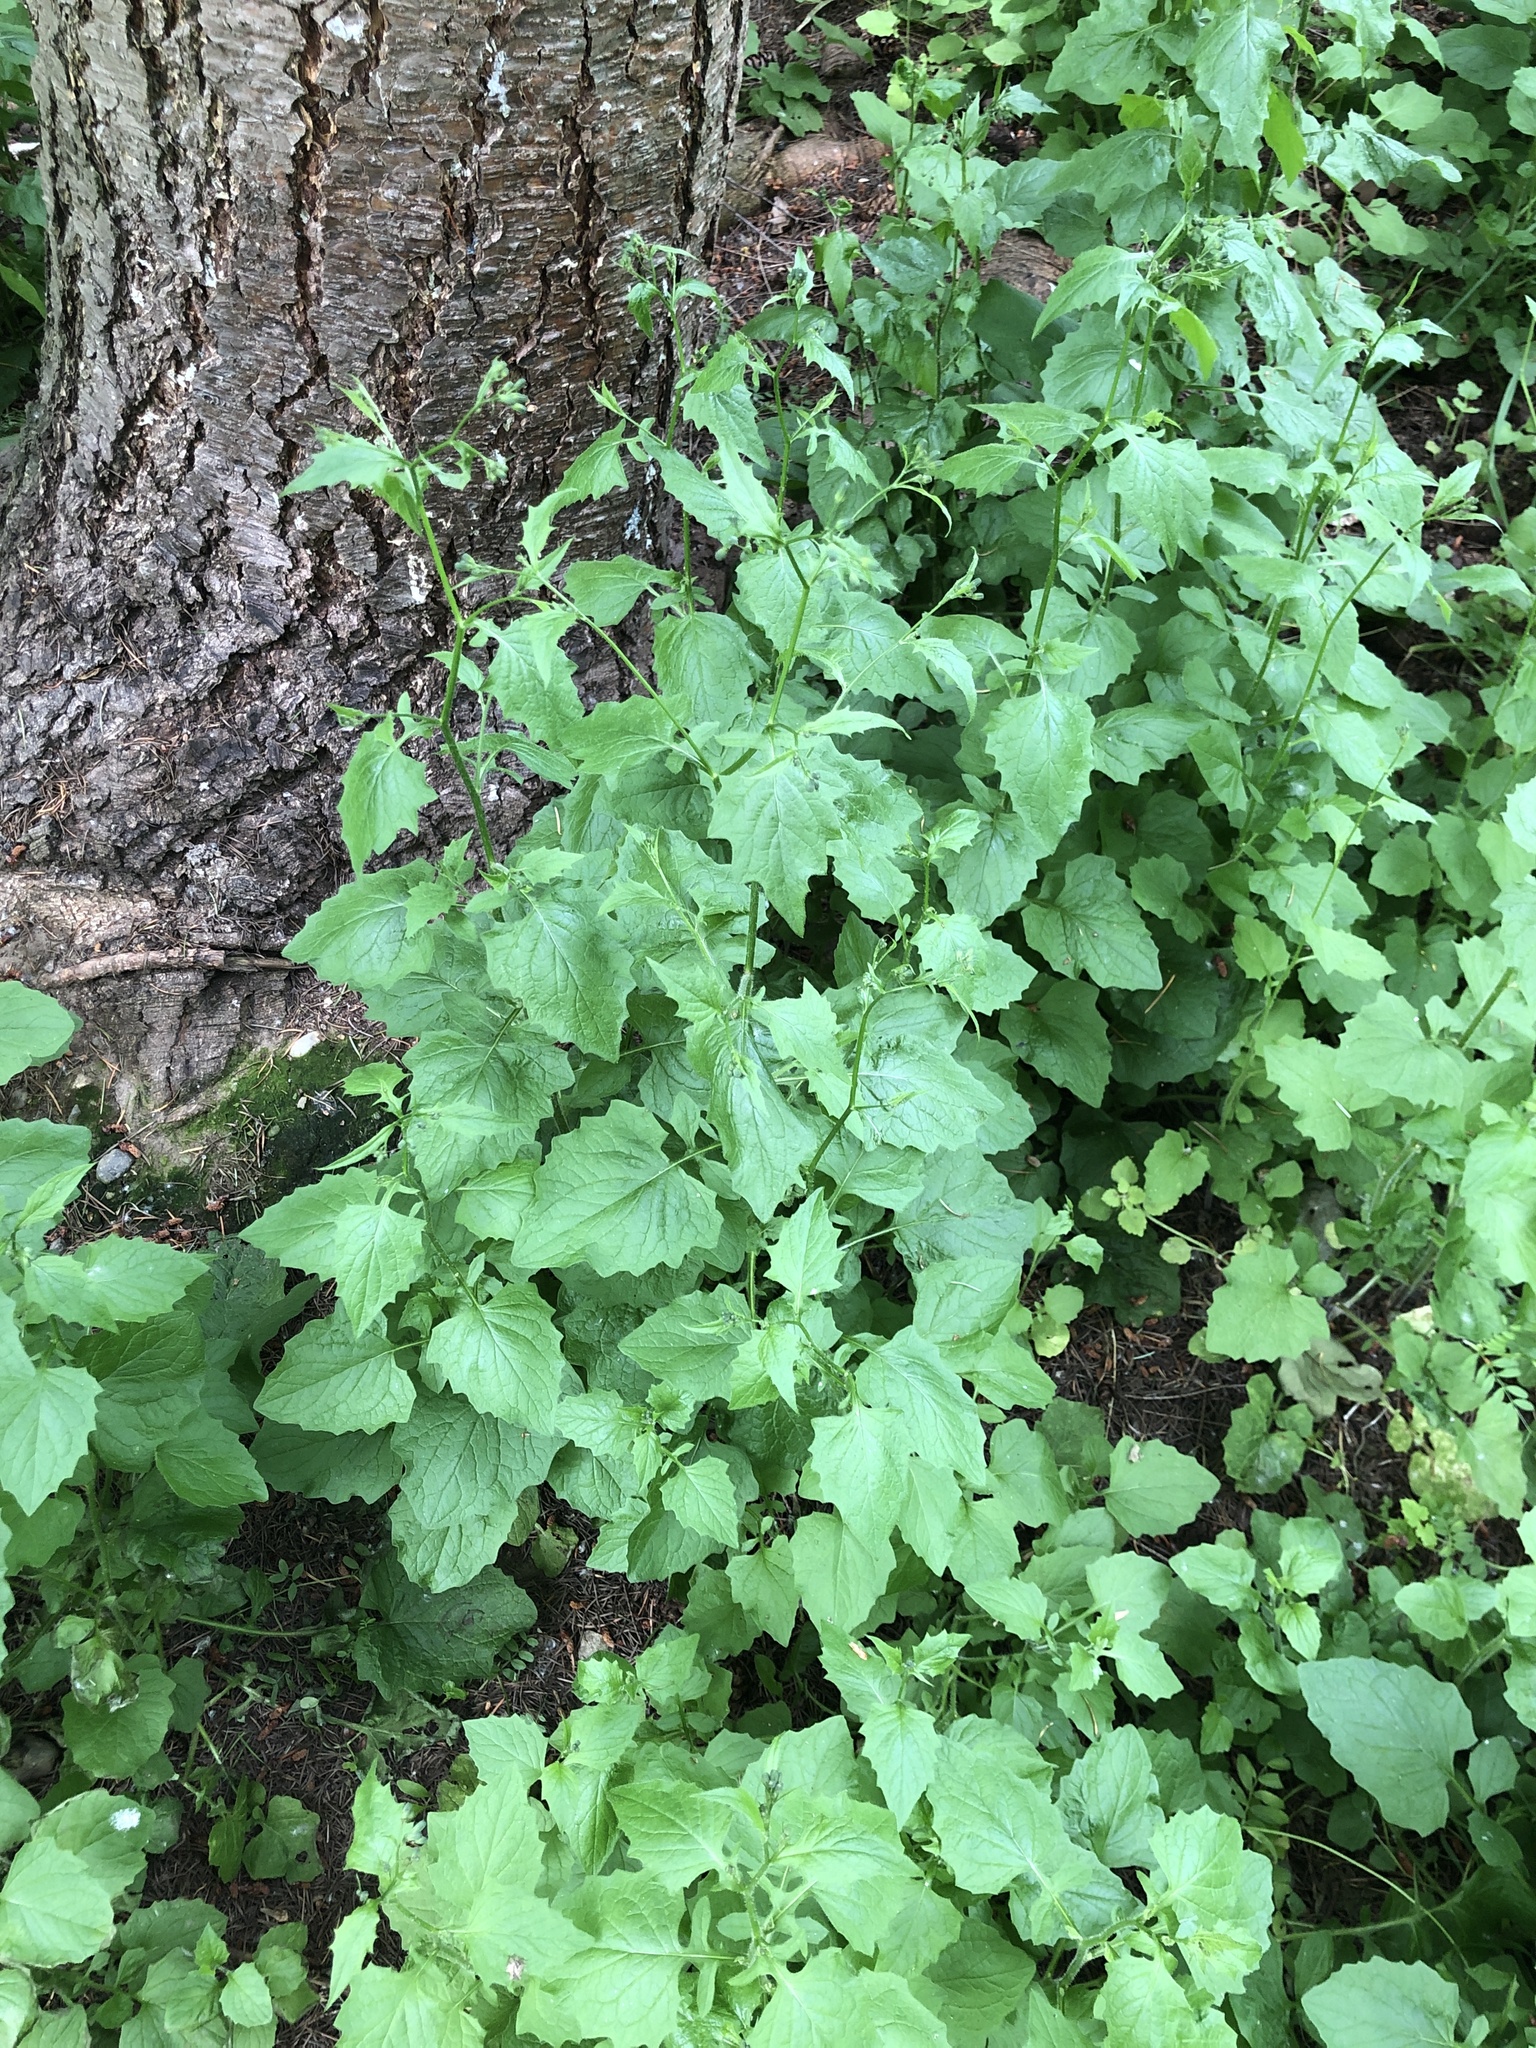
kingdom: Plantae
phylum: Tracheophyta
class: Magnoliopsida
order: Asterales
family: Asteraceae
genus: Lapsana
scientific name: Lapsana communis
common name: Nipplewort
